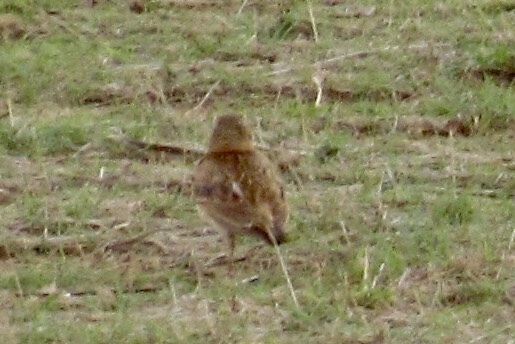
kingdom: Animalia
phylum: Chordata
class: Aves
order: Passeriformes
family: Alaudidae
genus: Eremophila
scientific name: Eremophila alpestris
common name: Horned lark
